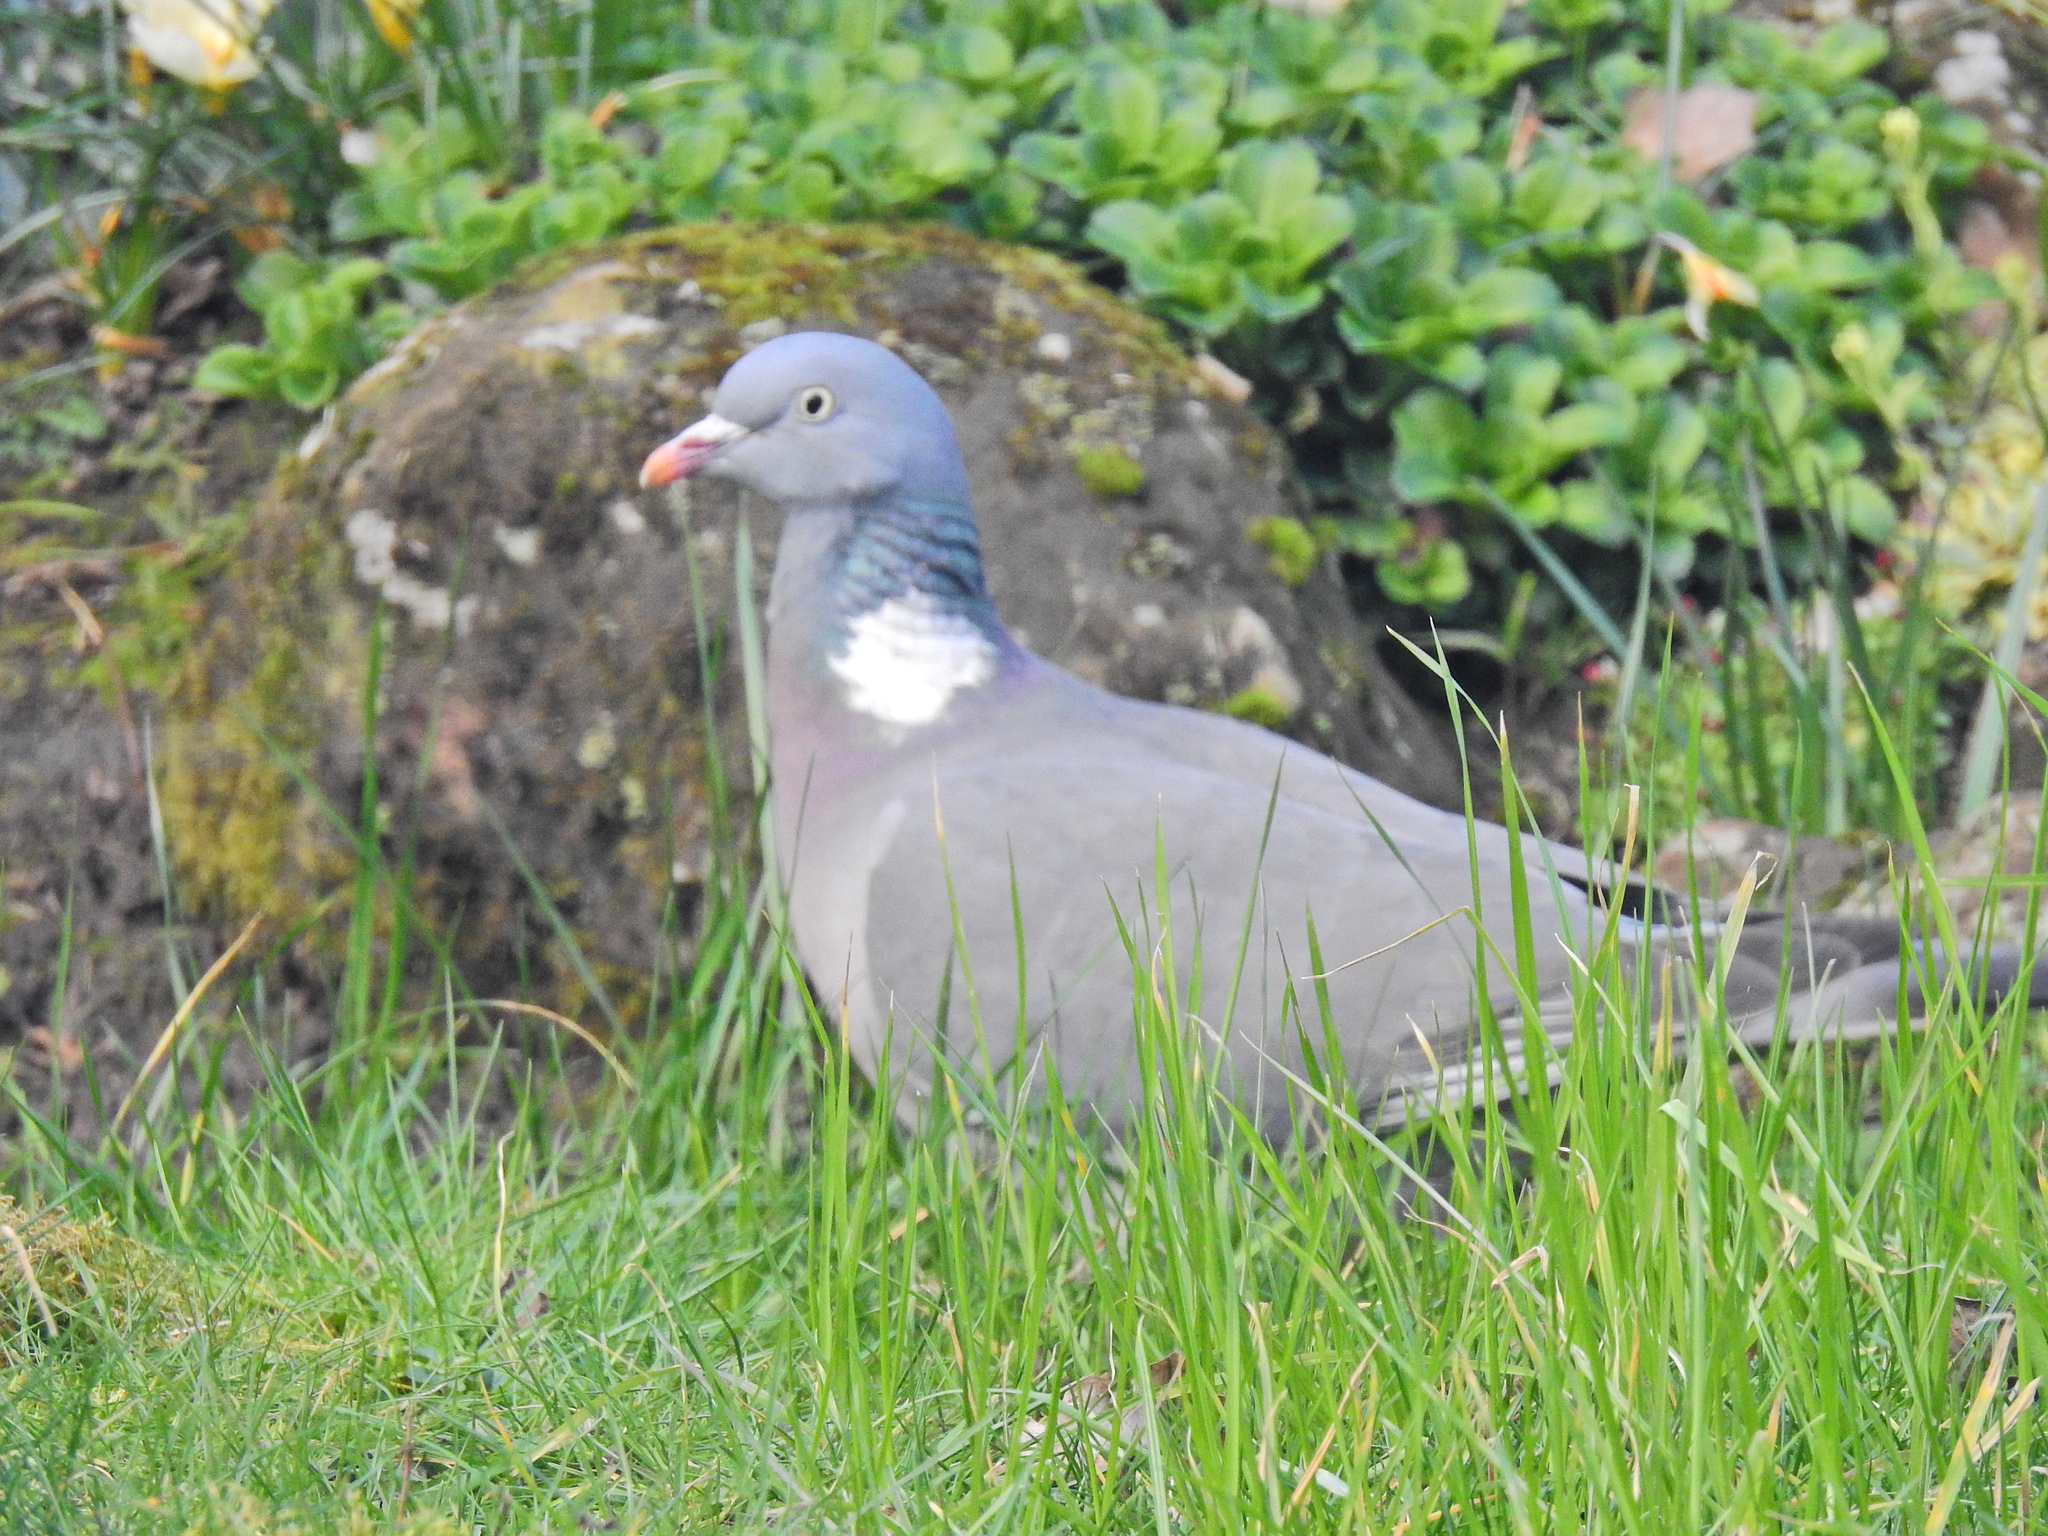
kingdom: Animalia
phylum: Chordata
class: Aves
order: Columbiformes
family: Columbidae
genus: Columba
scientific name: Columba palumbus
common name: Common wood pigeon
